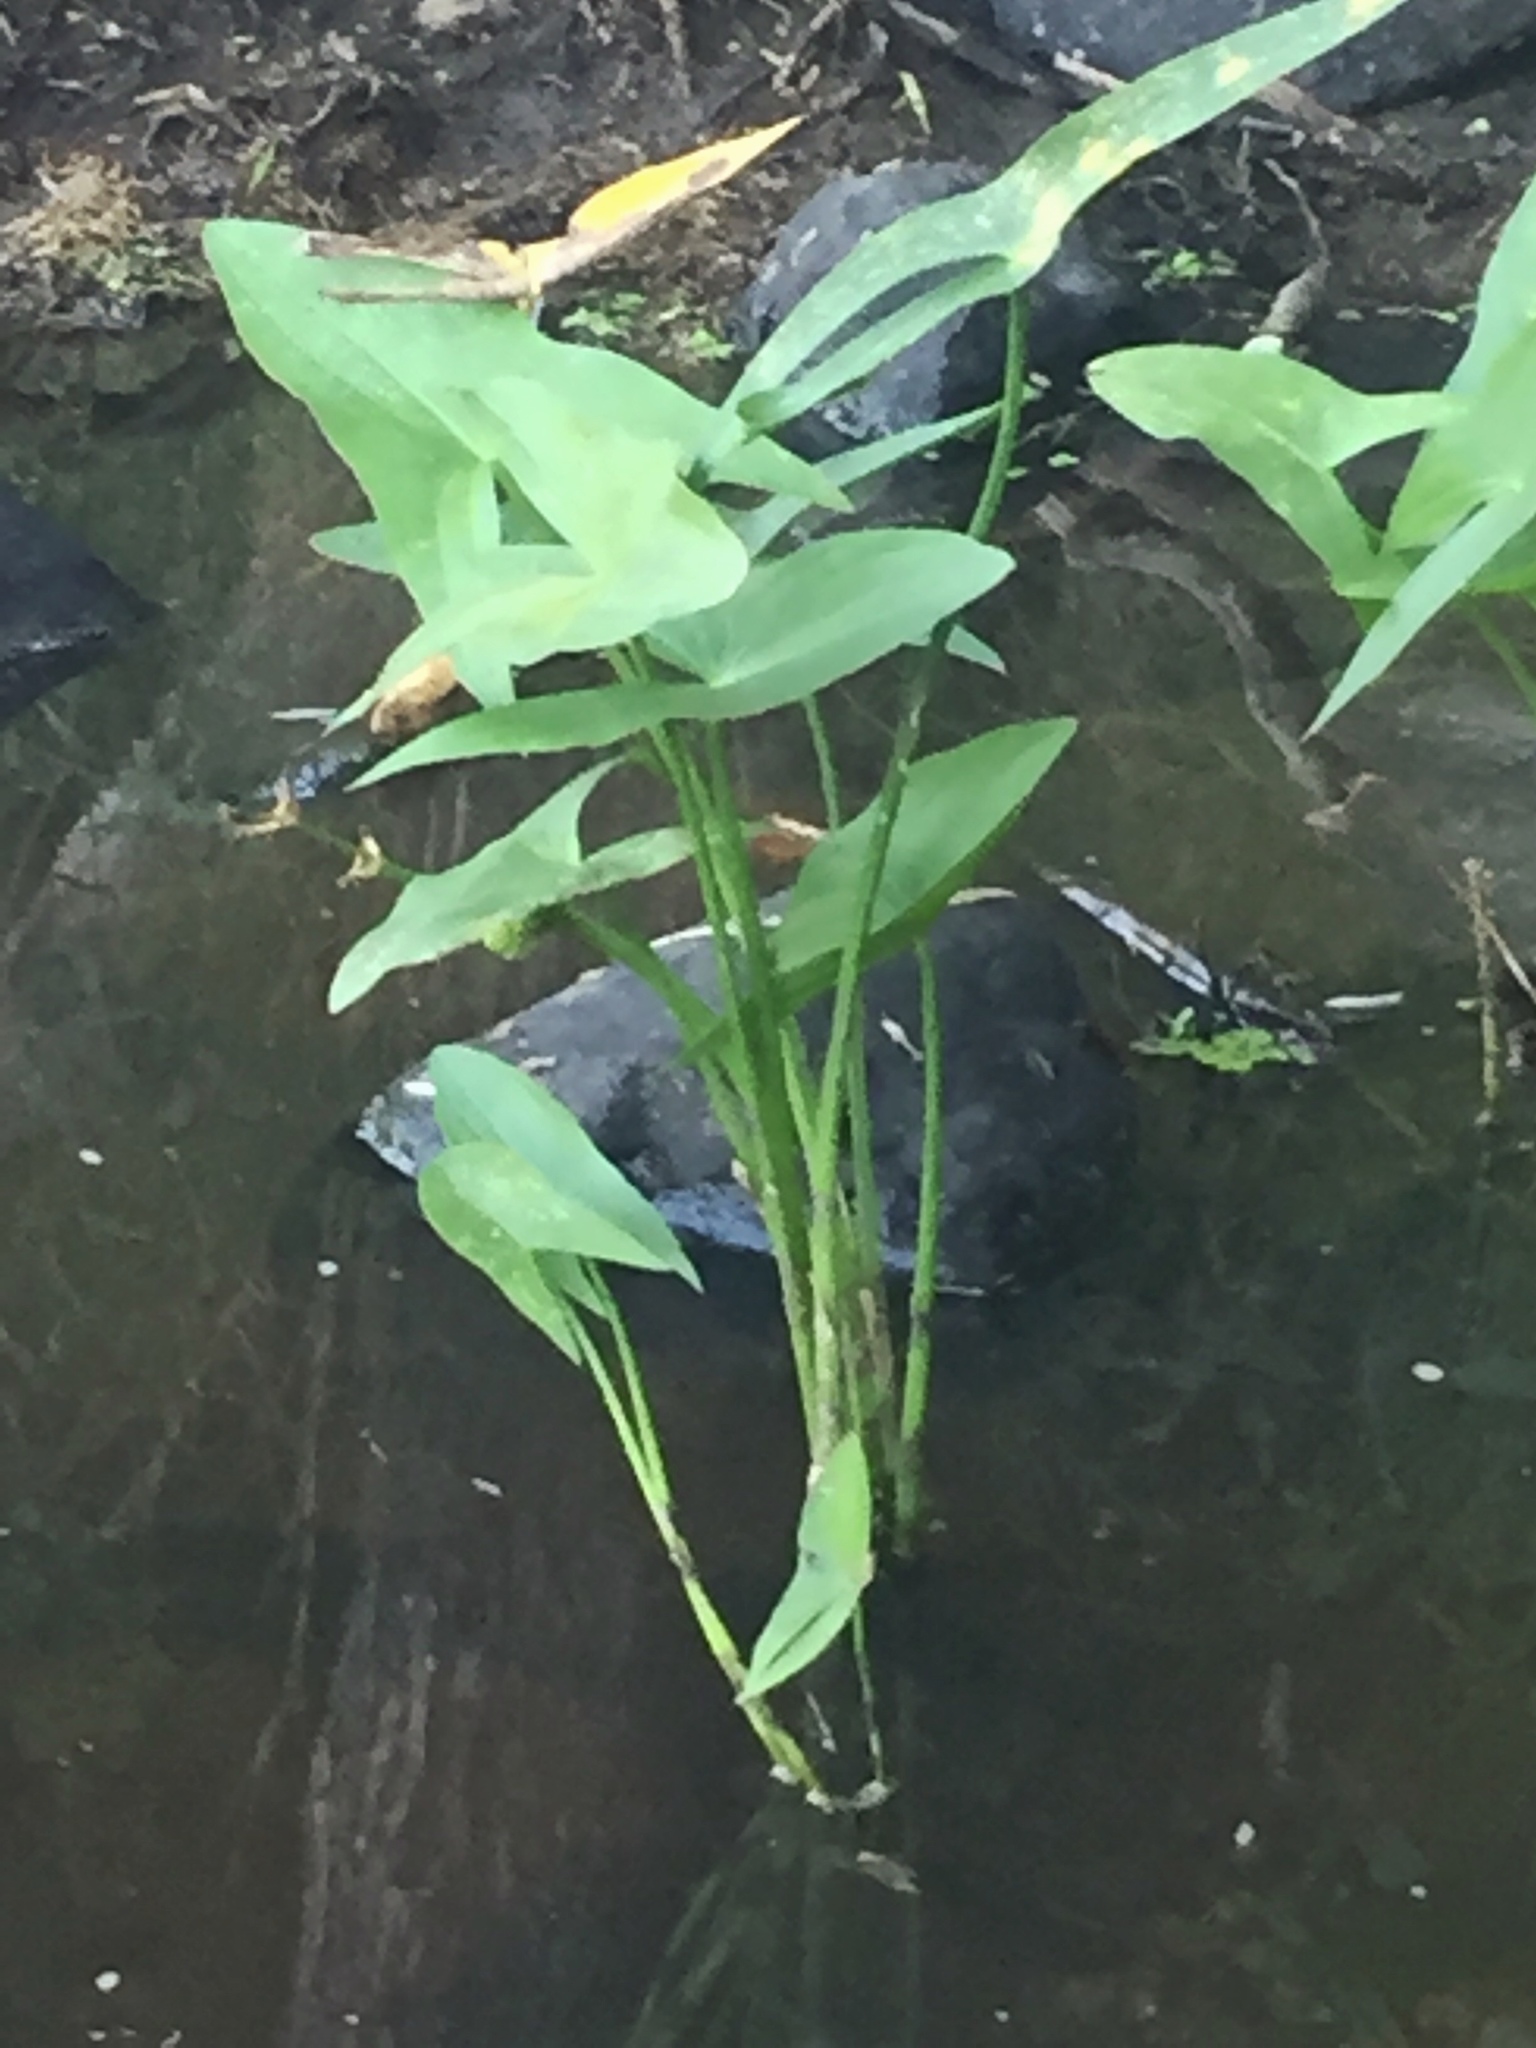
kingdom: Plantae
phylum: Tracheophyta
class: Liliopsida
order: Alismatales
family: Alismataceae
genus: Sagittaria
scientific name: Sagittaria cuneata
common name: Northern arrowhead
